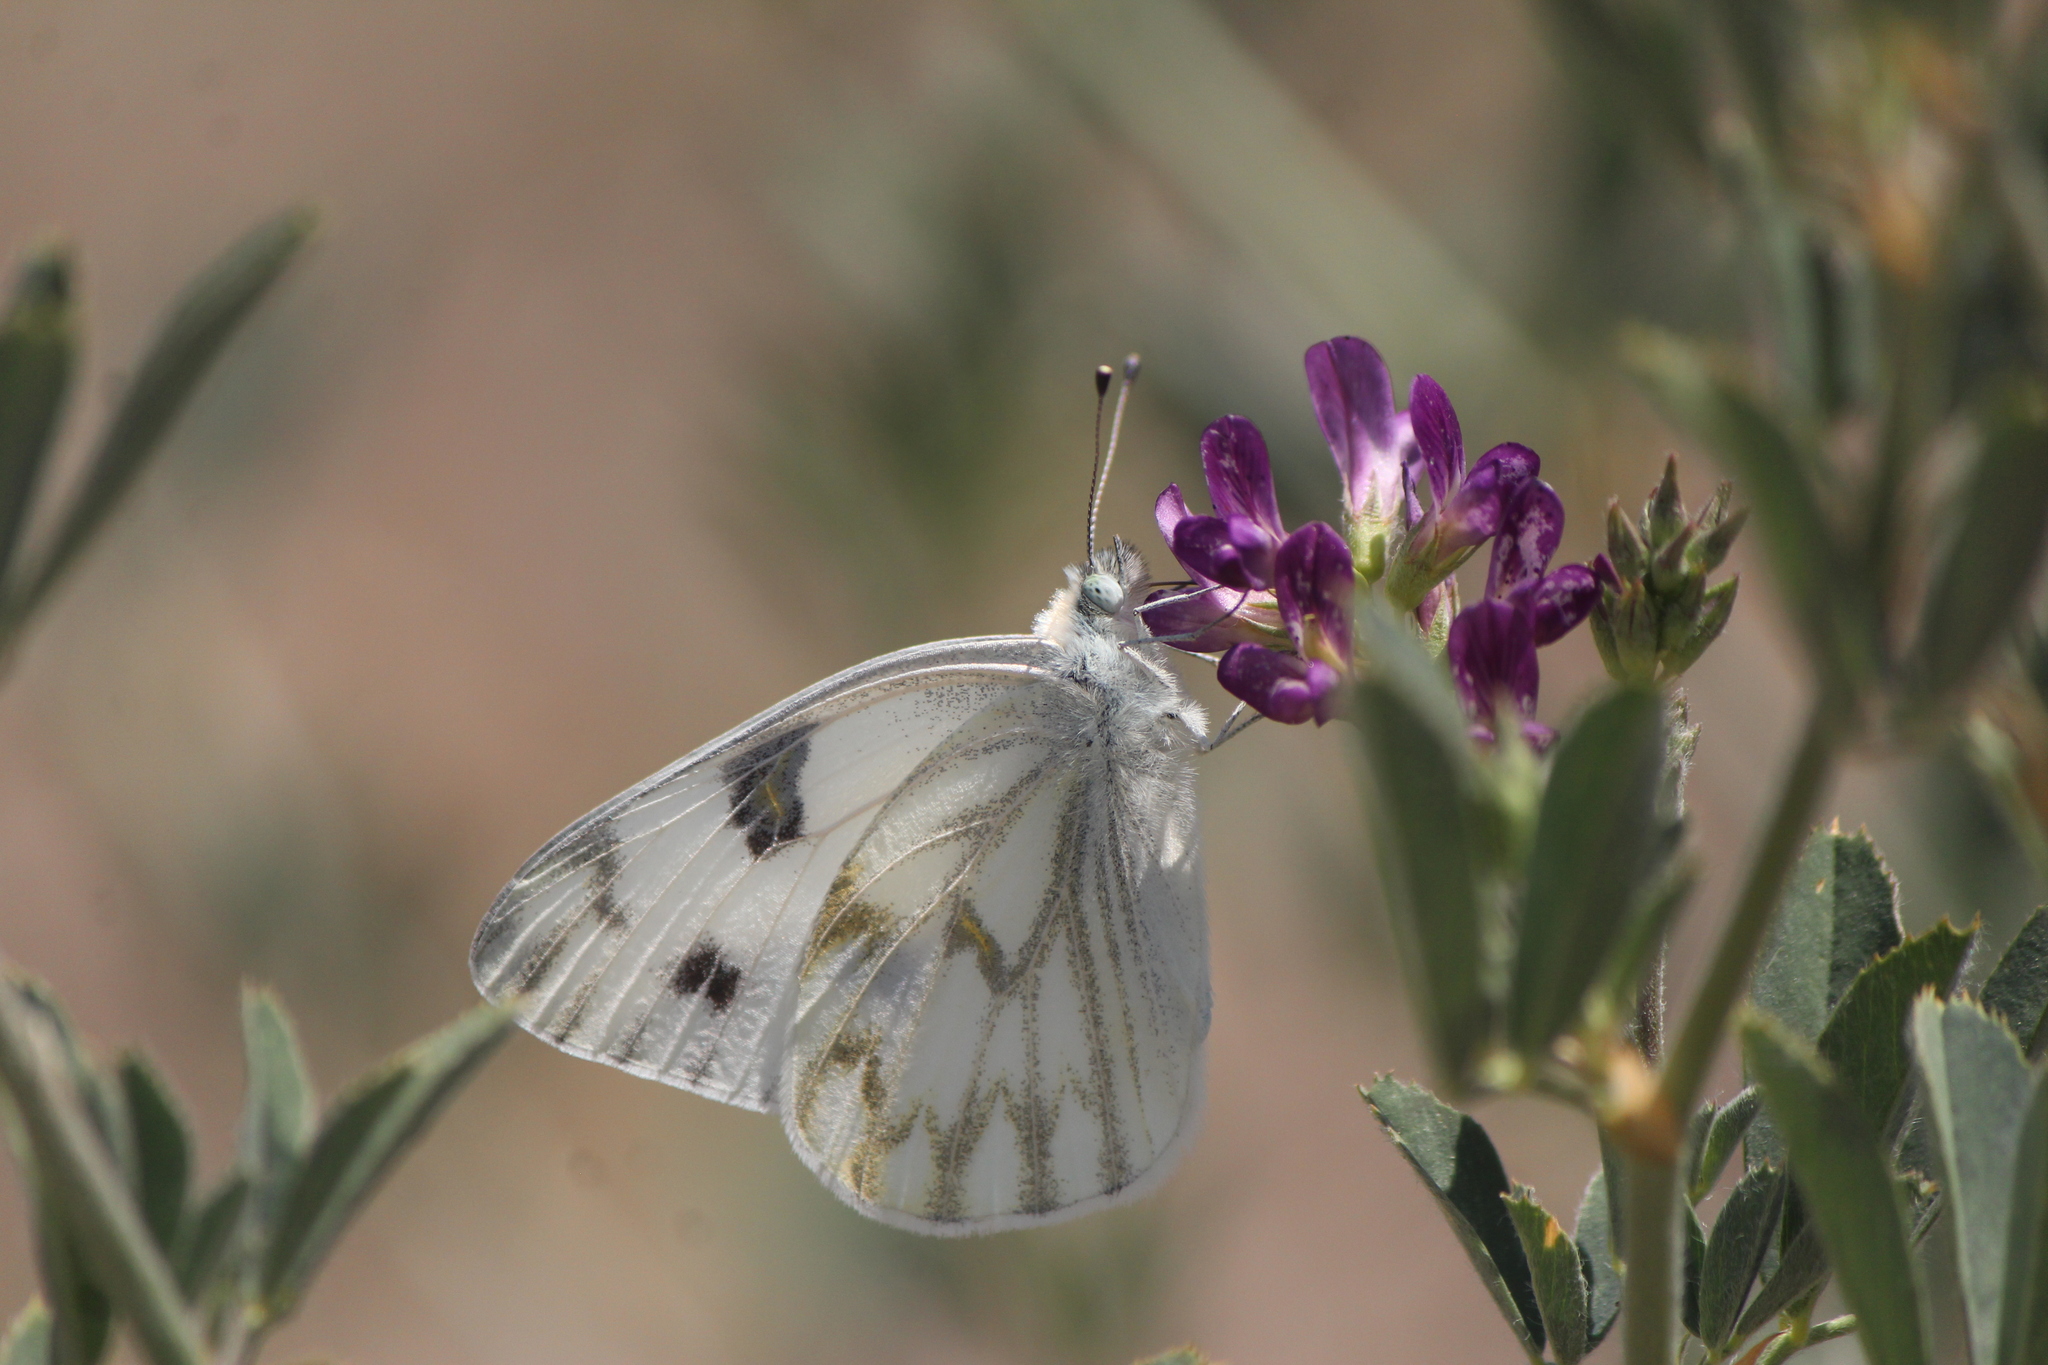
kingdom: Animalia
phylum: Arthropoda
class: Insecta
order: Lepidoptera
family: Pieridae
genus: Pontia
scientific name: Pontia protodice
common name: Checkered white
